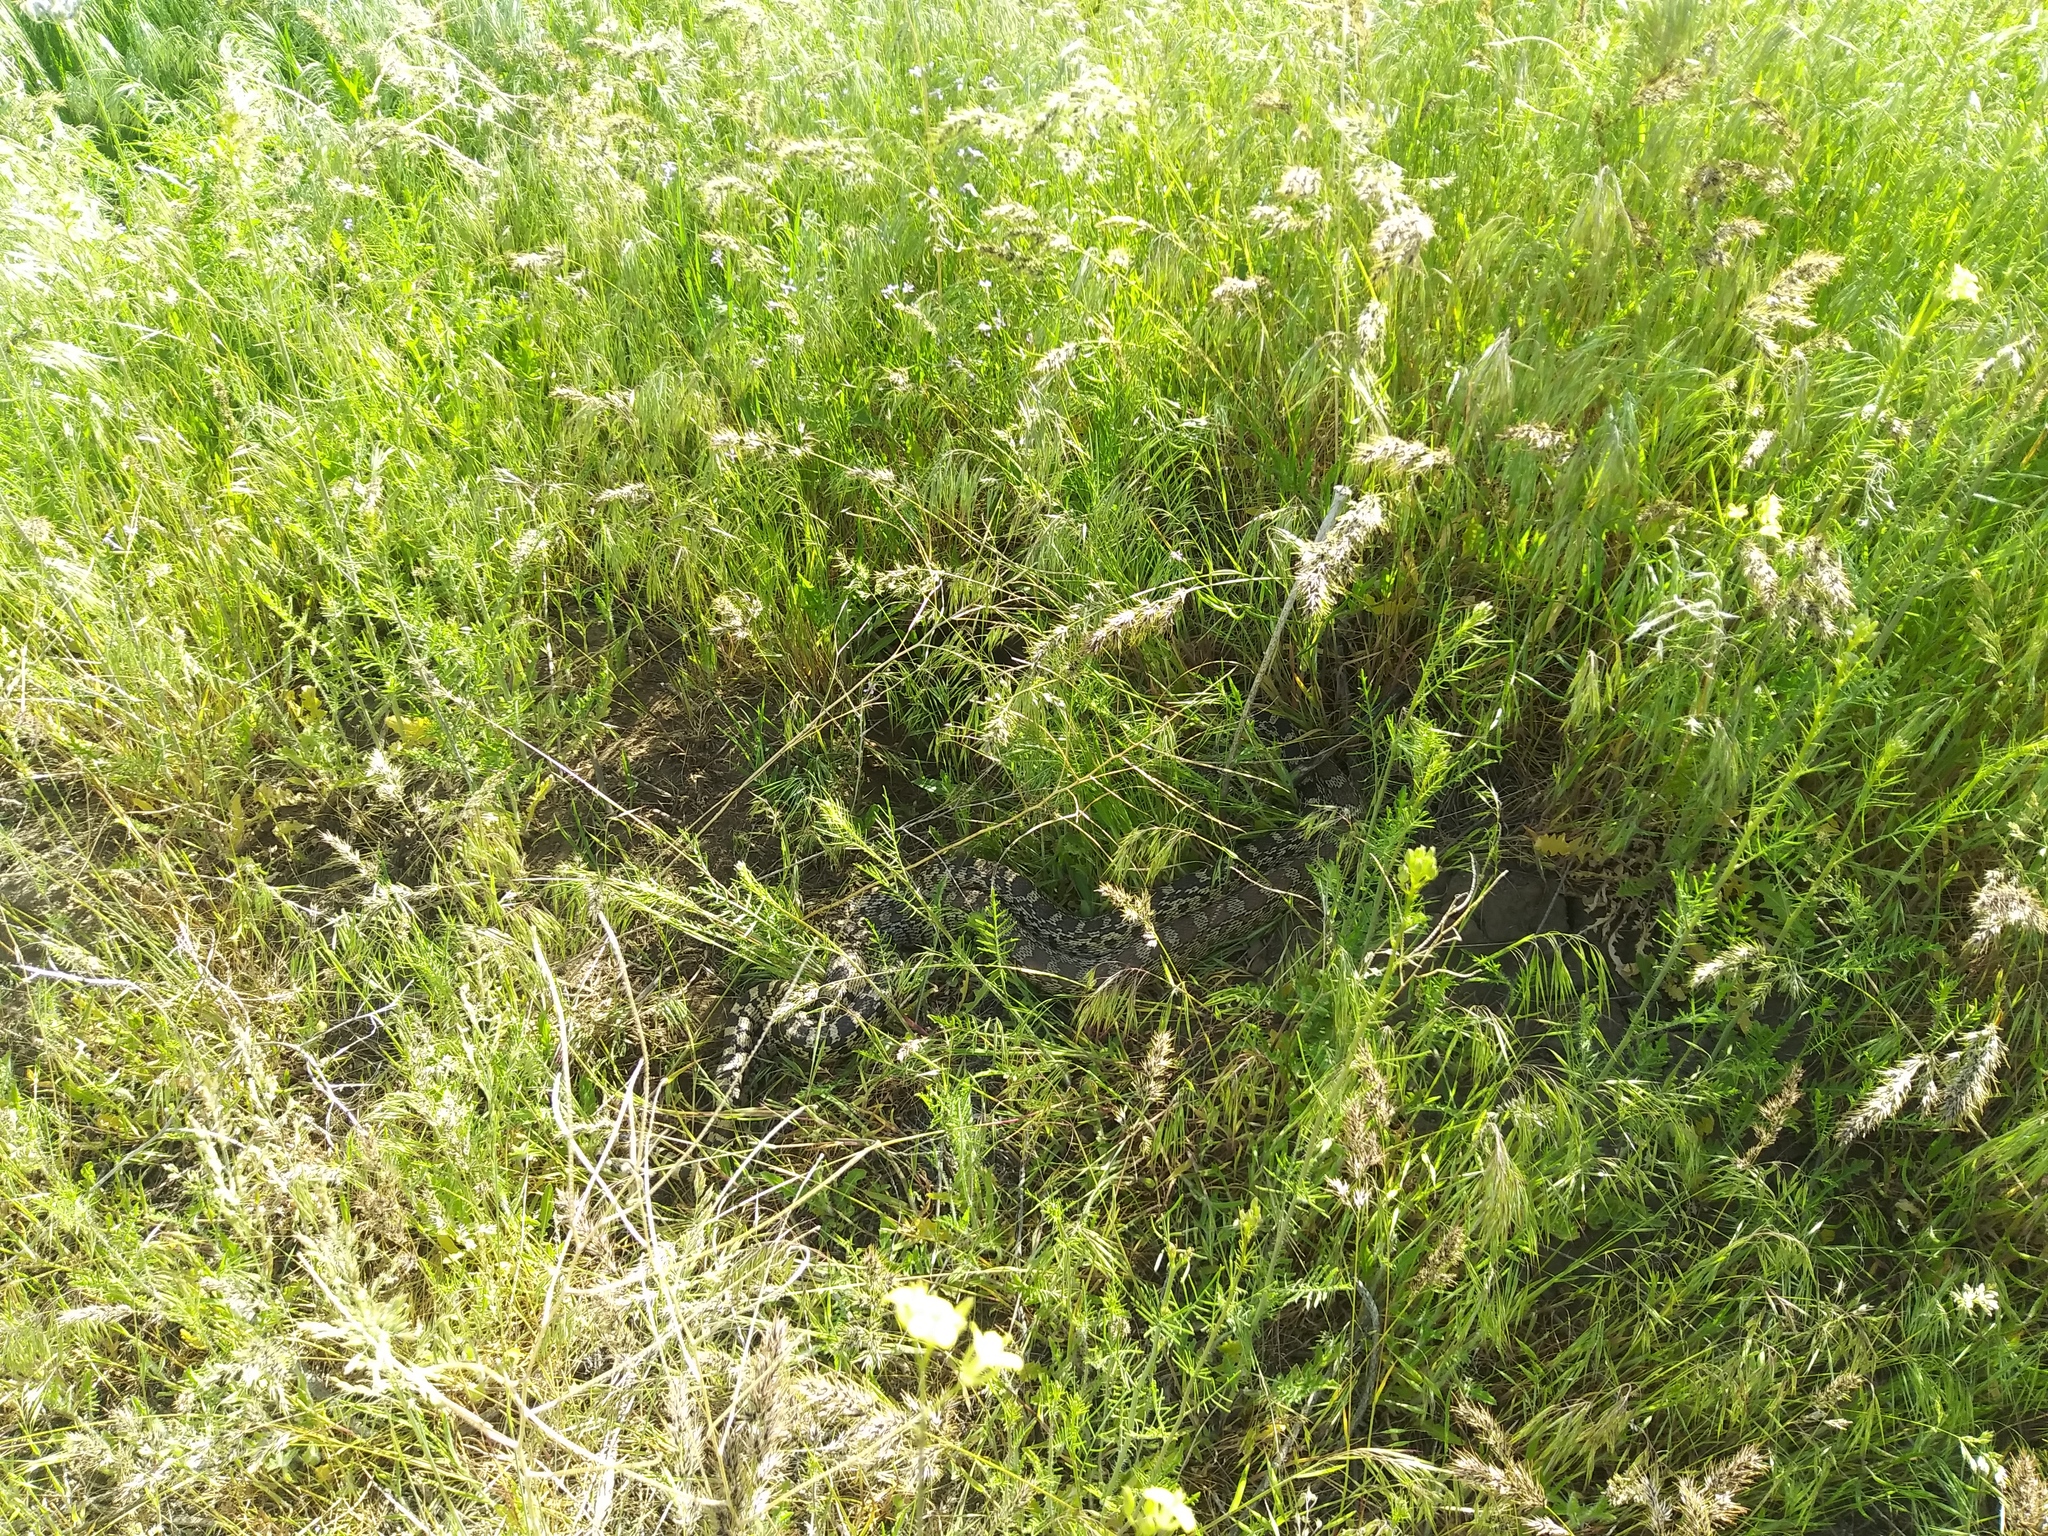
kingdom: Animalia
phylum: Chordata
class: Squamata
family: Colubridae
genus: Pituophis
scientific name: Pituophis catenifer
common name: Gopher snake
